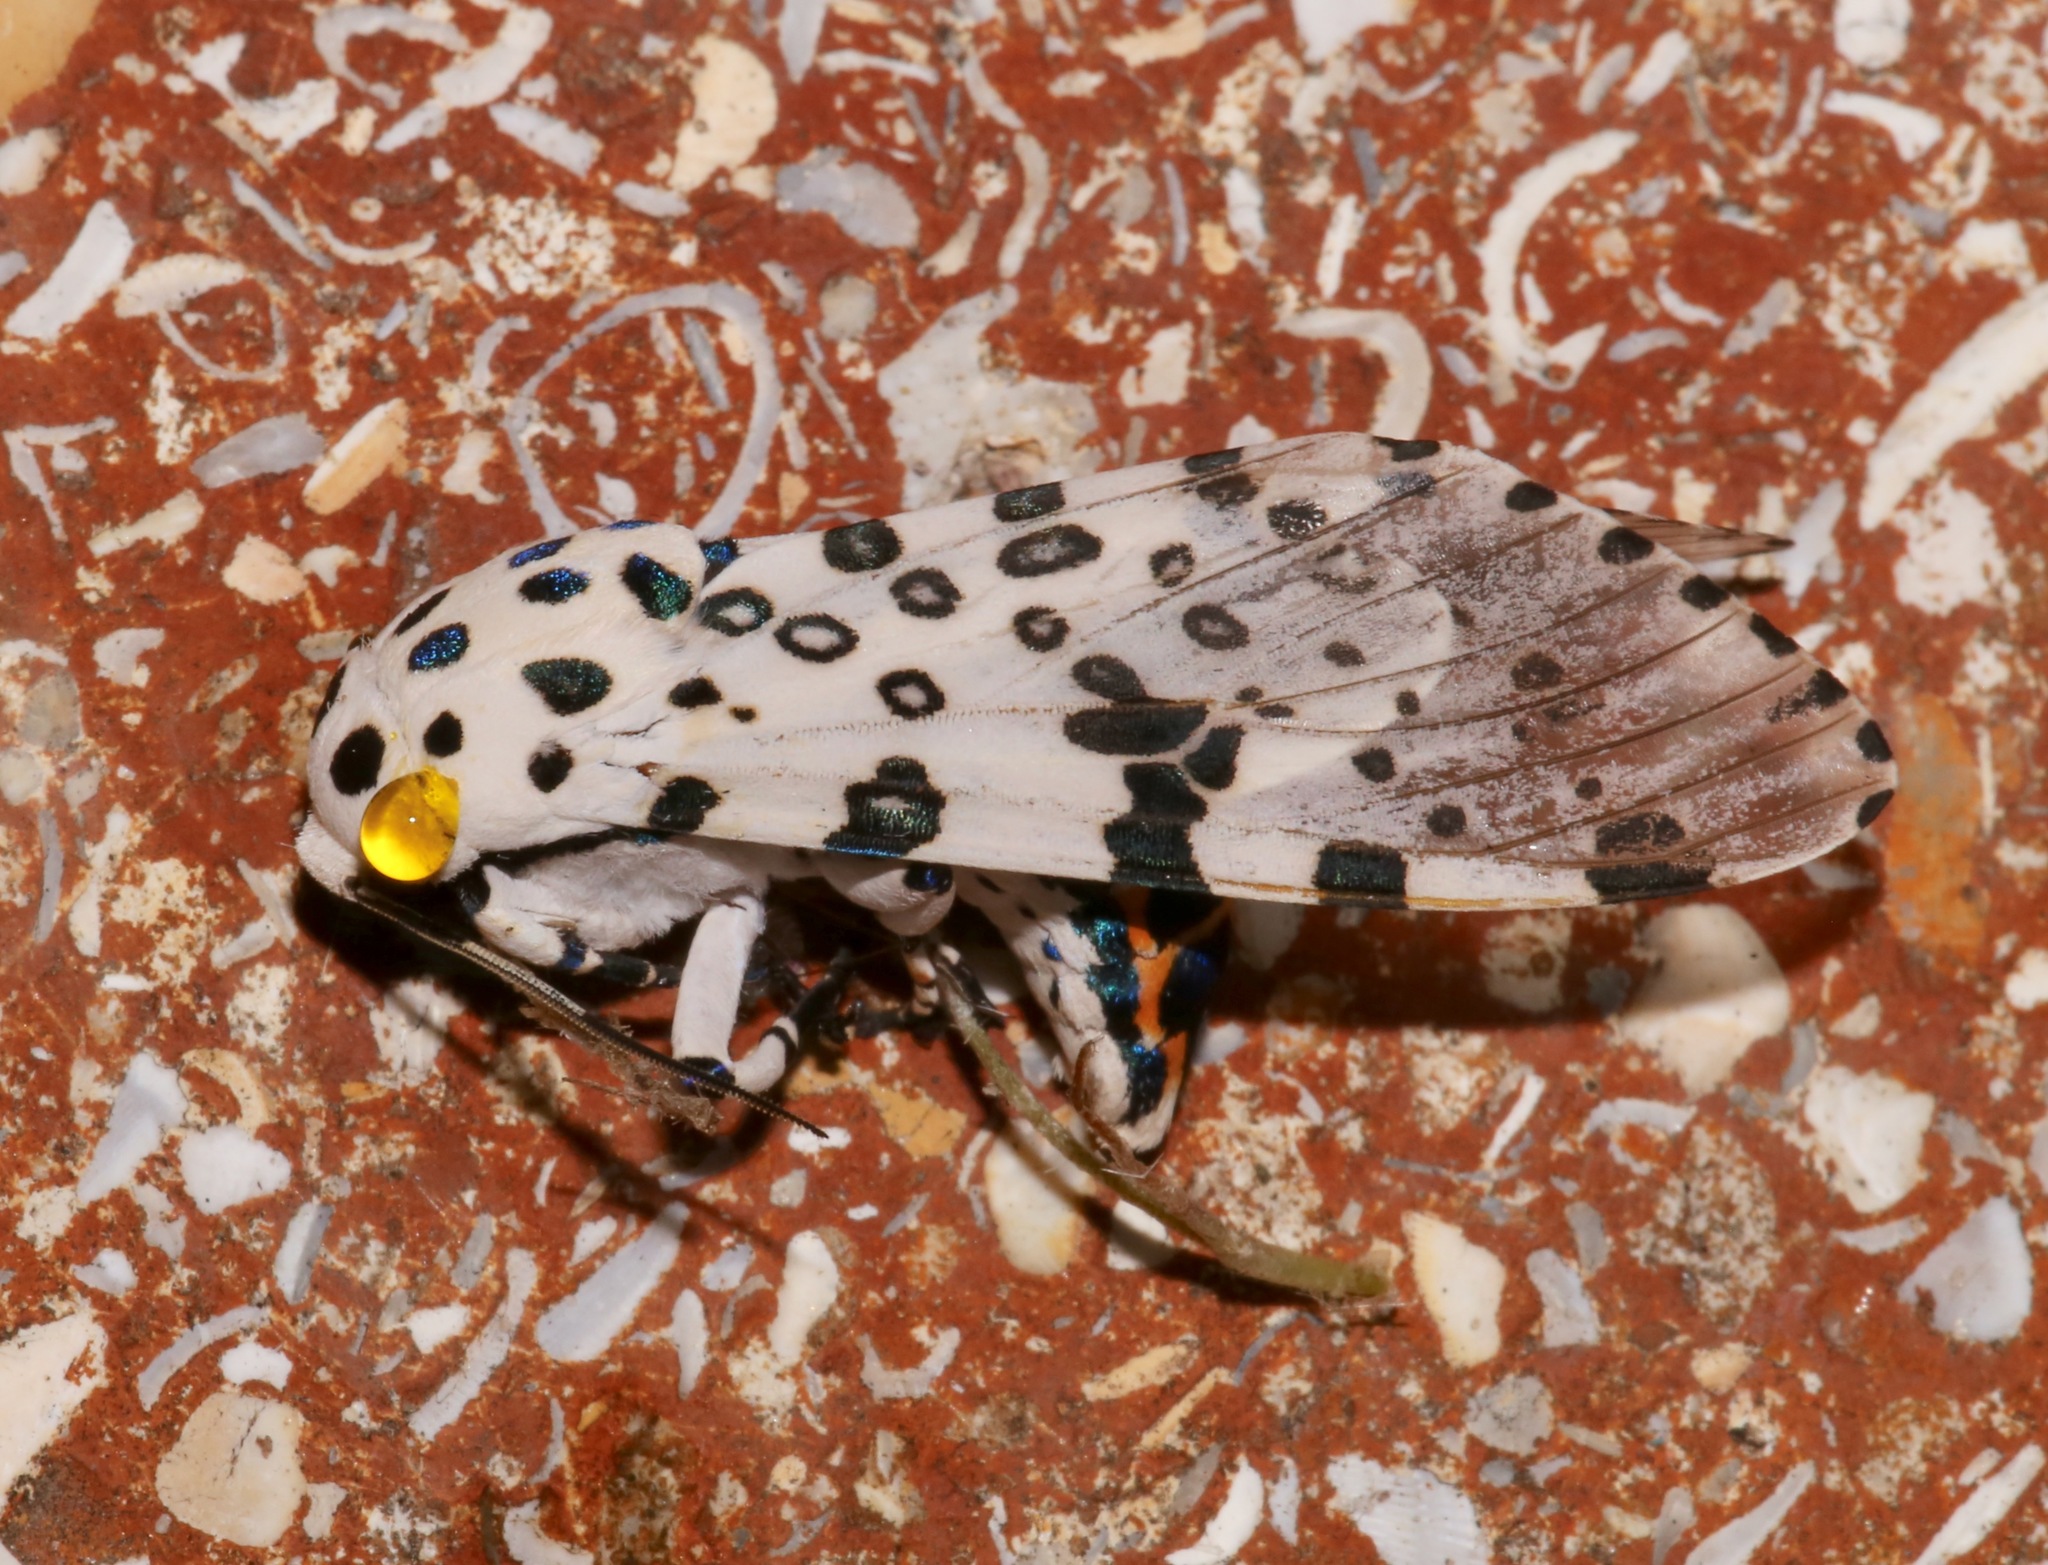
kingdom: Animalia
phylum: Arthropoda
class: Insecta
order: Lepidoptera
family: Erebidae
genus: Hypercompe
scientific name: Hypercompe scribonia
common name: Giant leopard moth
